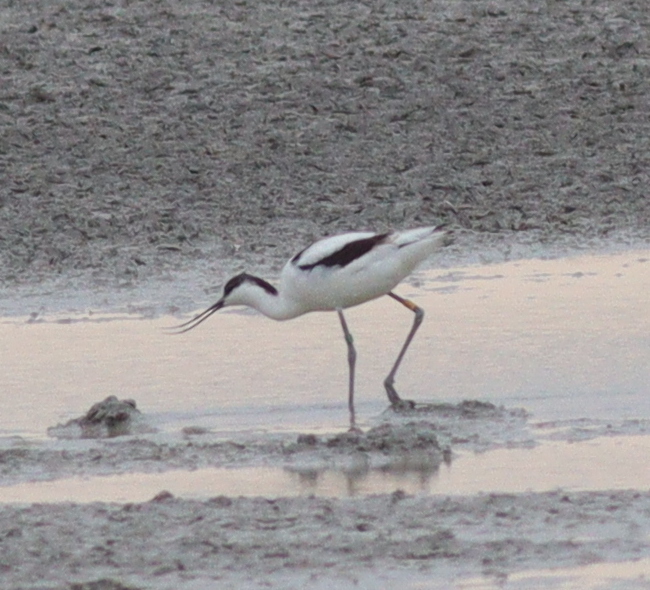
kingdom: Animalia
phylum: Chordata
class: Aves
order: Charadriiformes
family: Recurvirostridae
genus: Recurvirostra
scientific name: Recurvirostra avosetta
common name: Pied avocet
